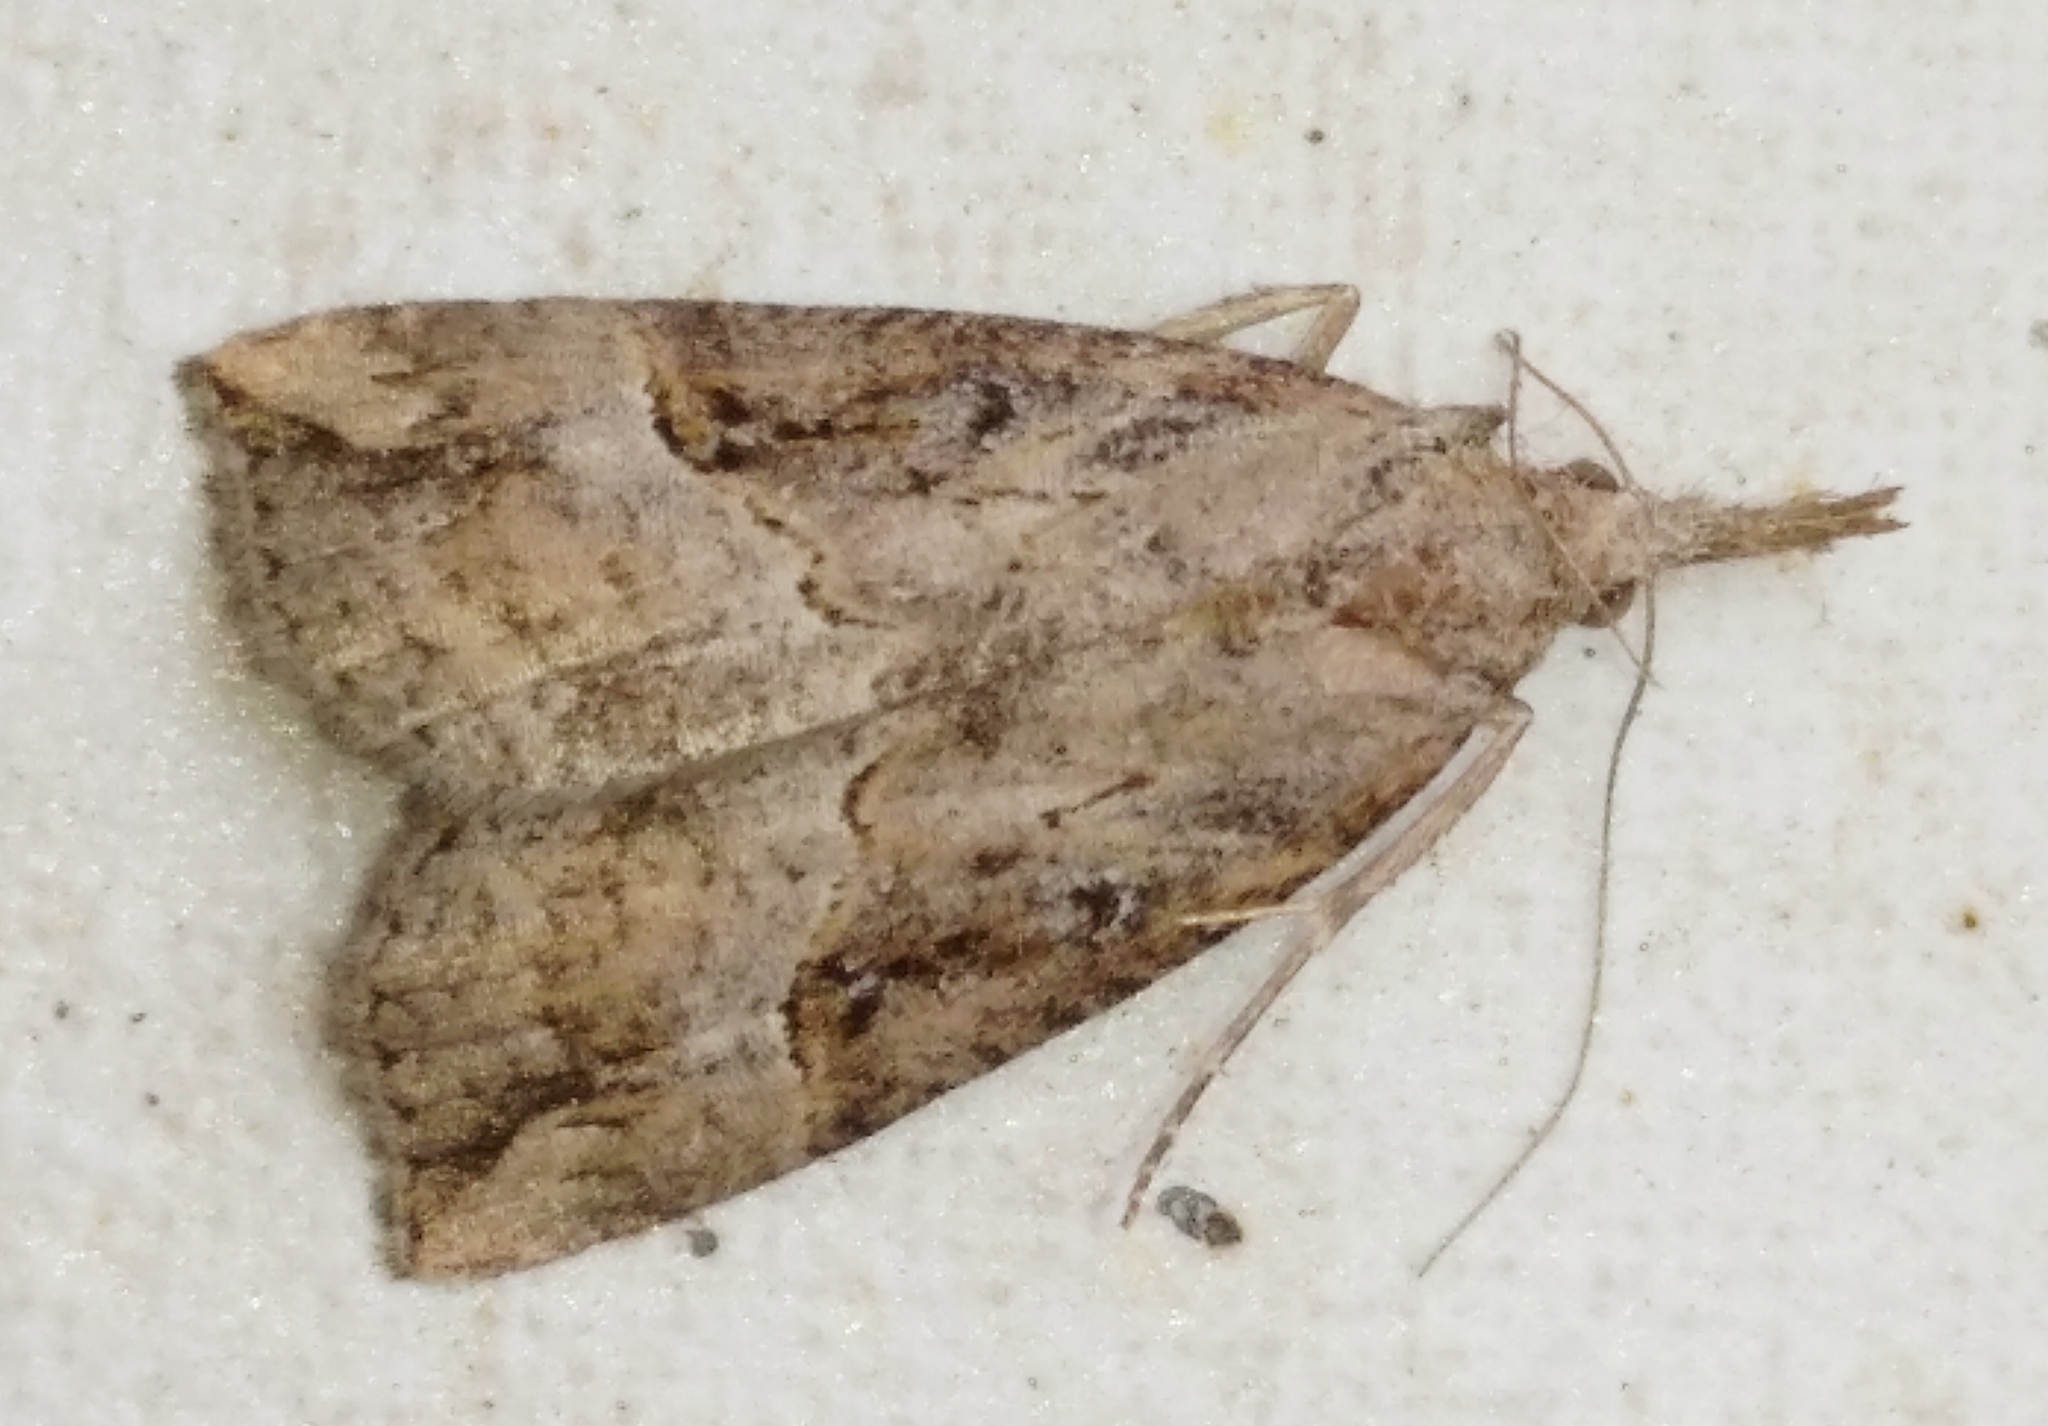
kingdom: Animalia
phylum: Arthropoda
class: Insecta
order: Lepidoptera
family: Erebidae
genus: Hypena
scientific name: Hypena rostralis
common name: Buttoned snout
